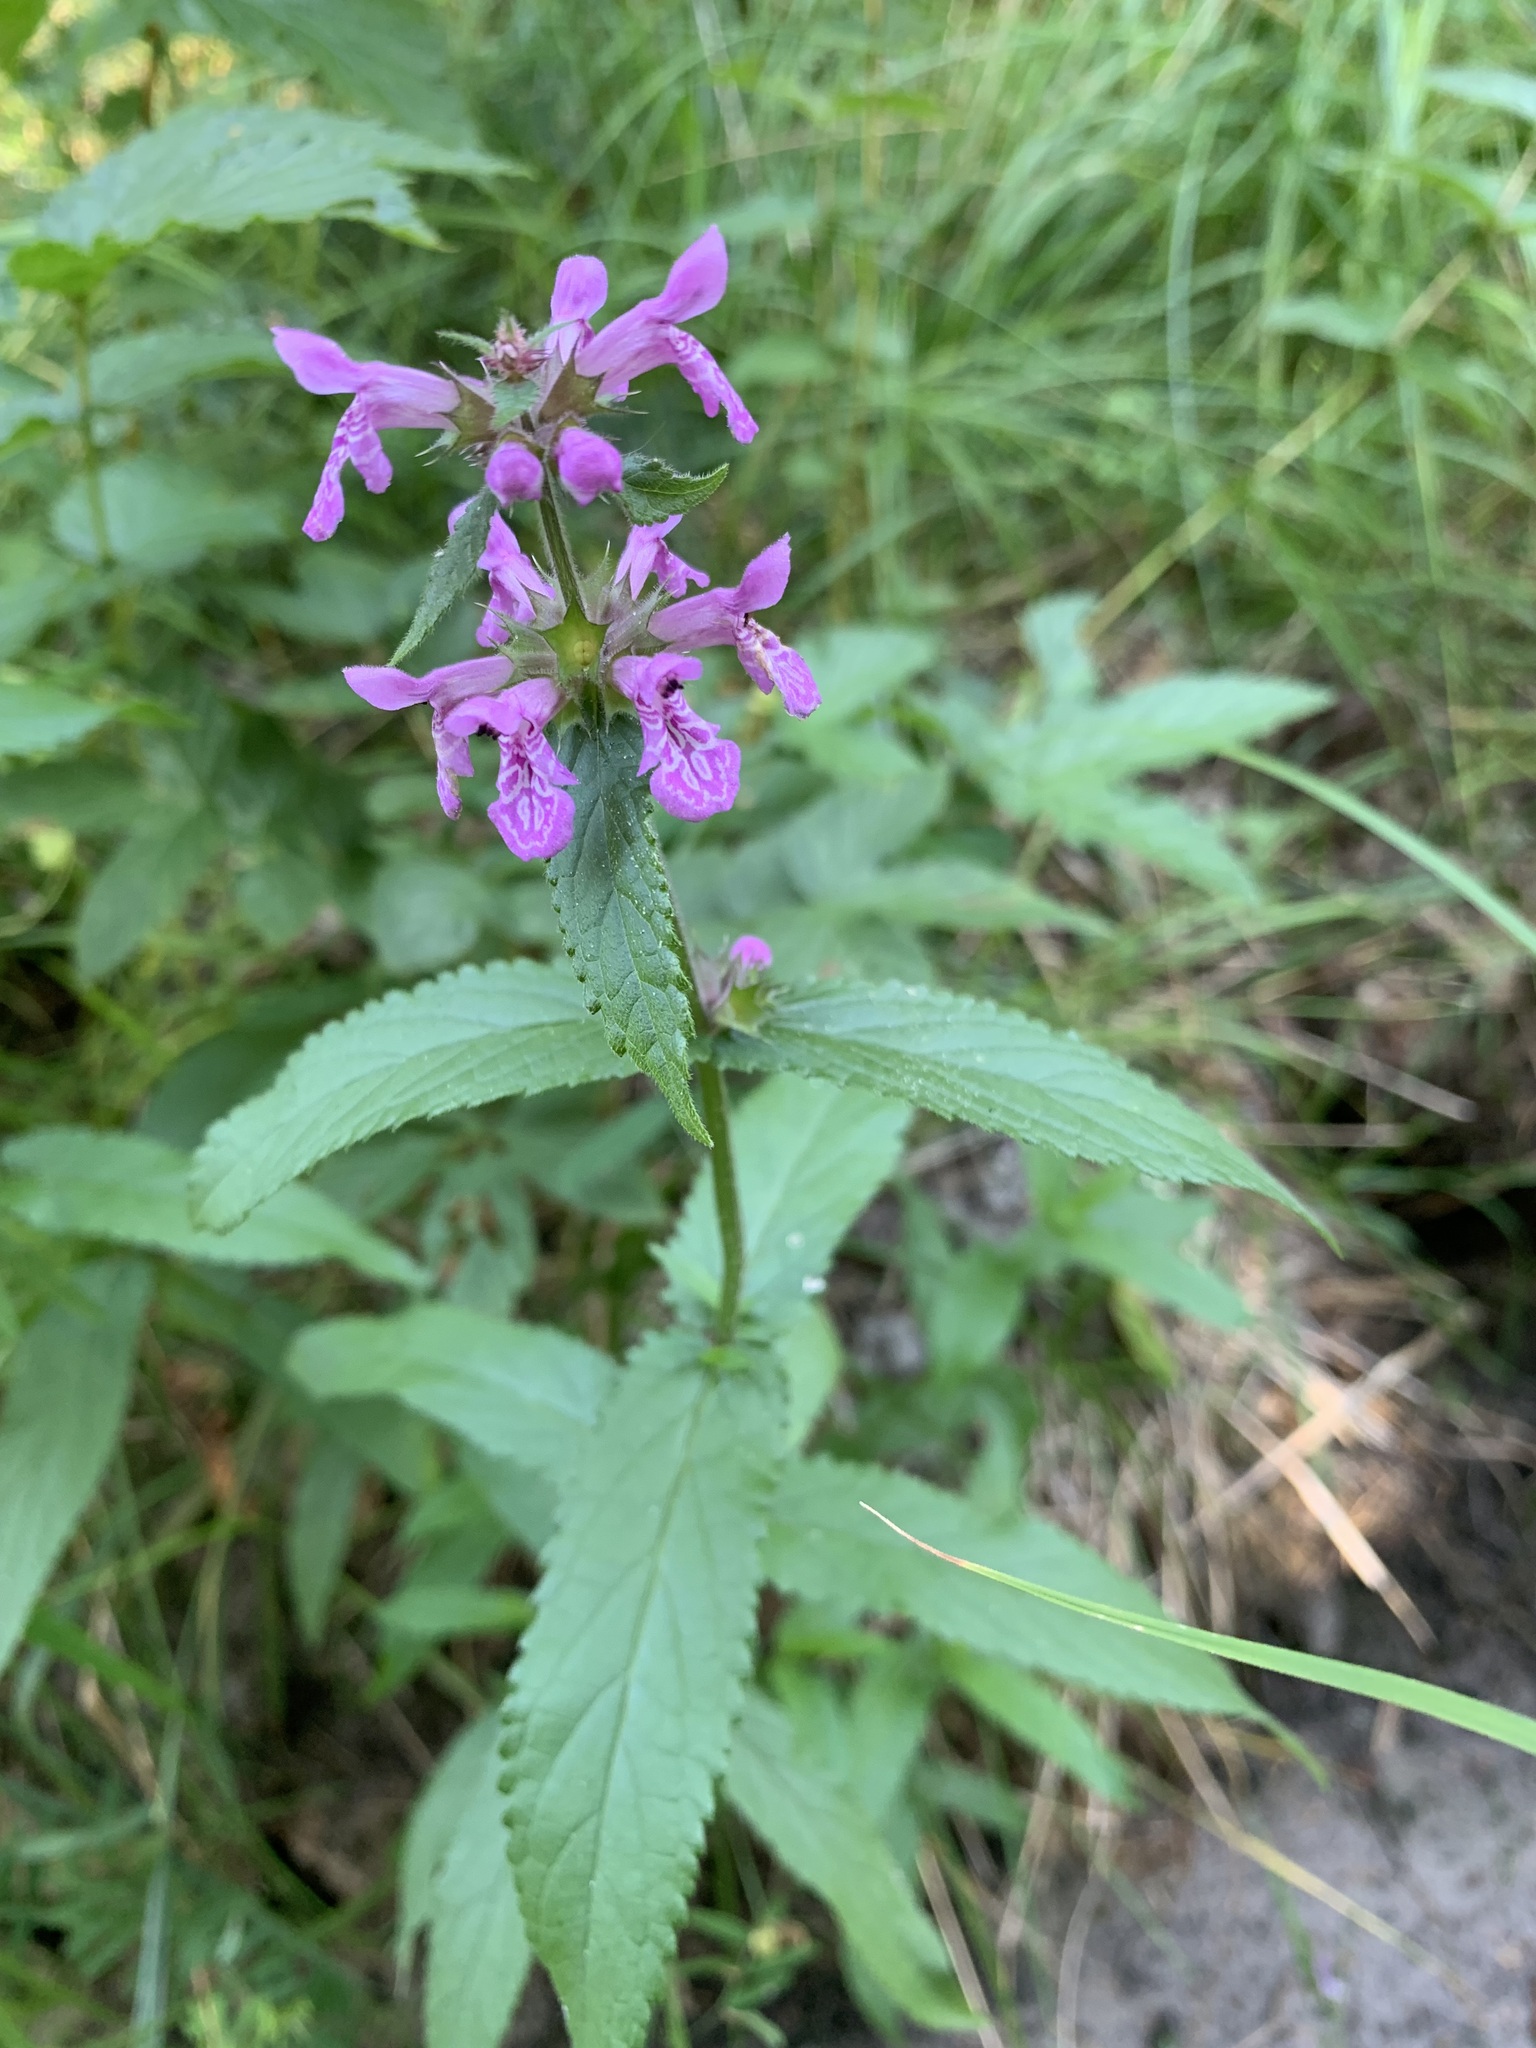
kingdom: Plantae
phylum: Tracheophyta
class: Magnoliopsida
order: Lamiales
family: Lamiaceae
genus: Stachys
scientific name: Stachys palustris
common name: Marsh woundwort
